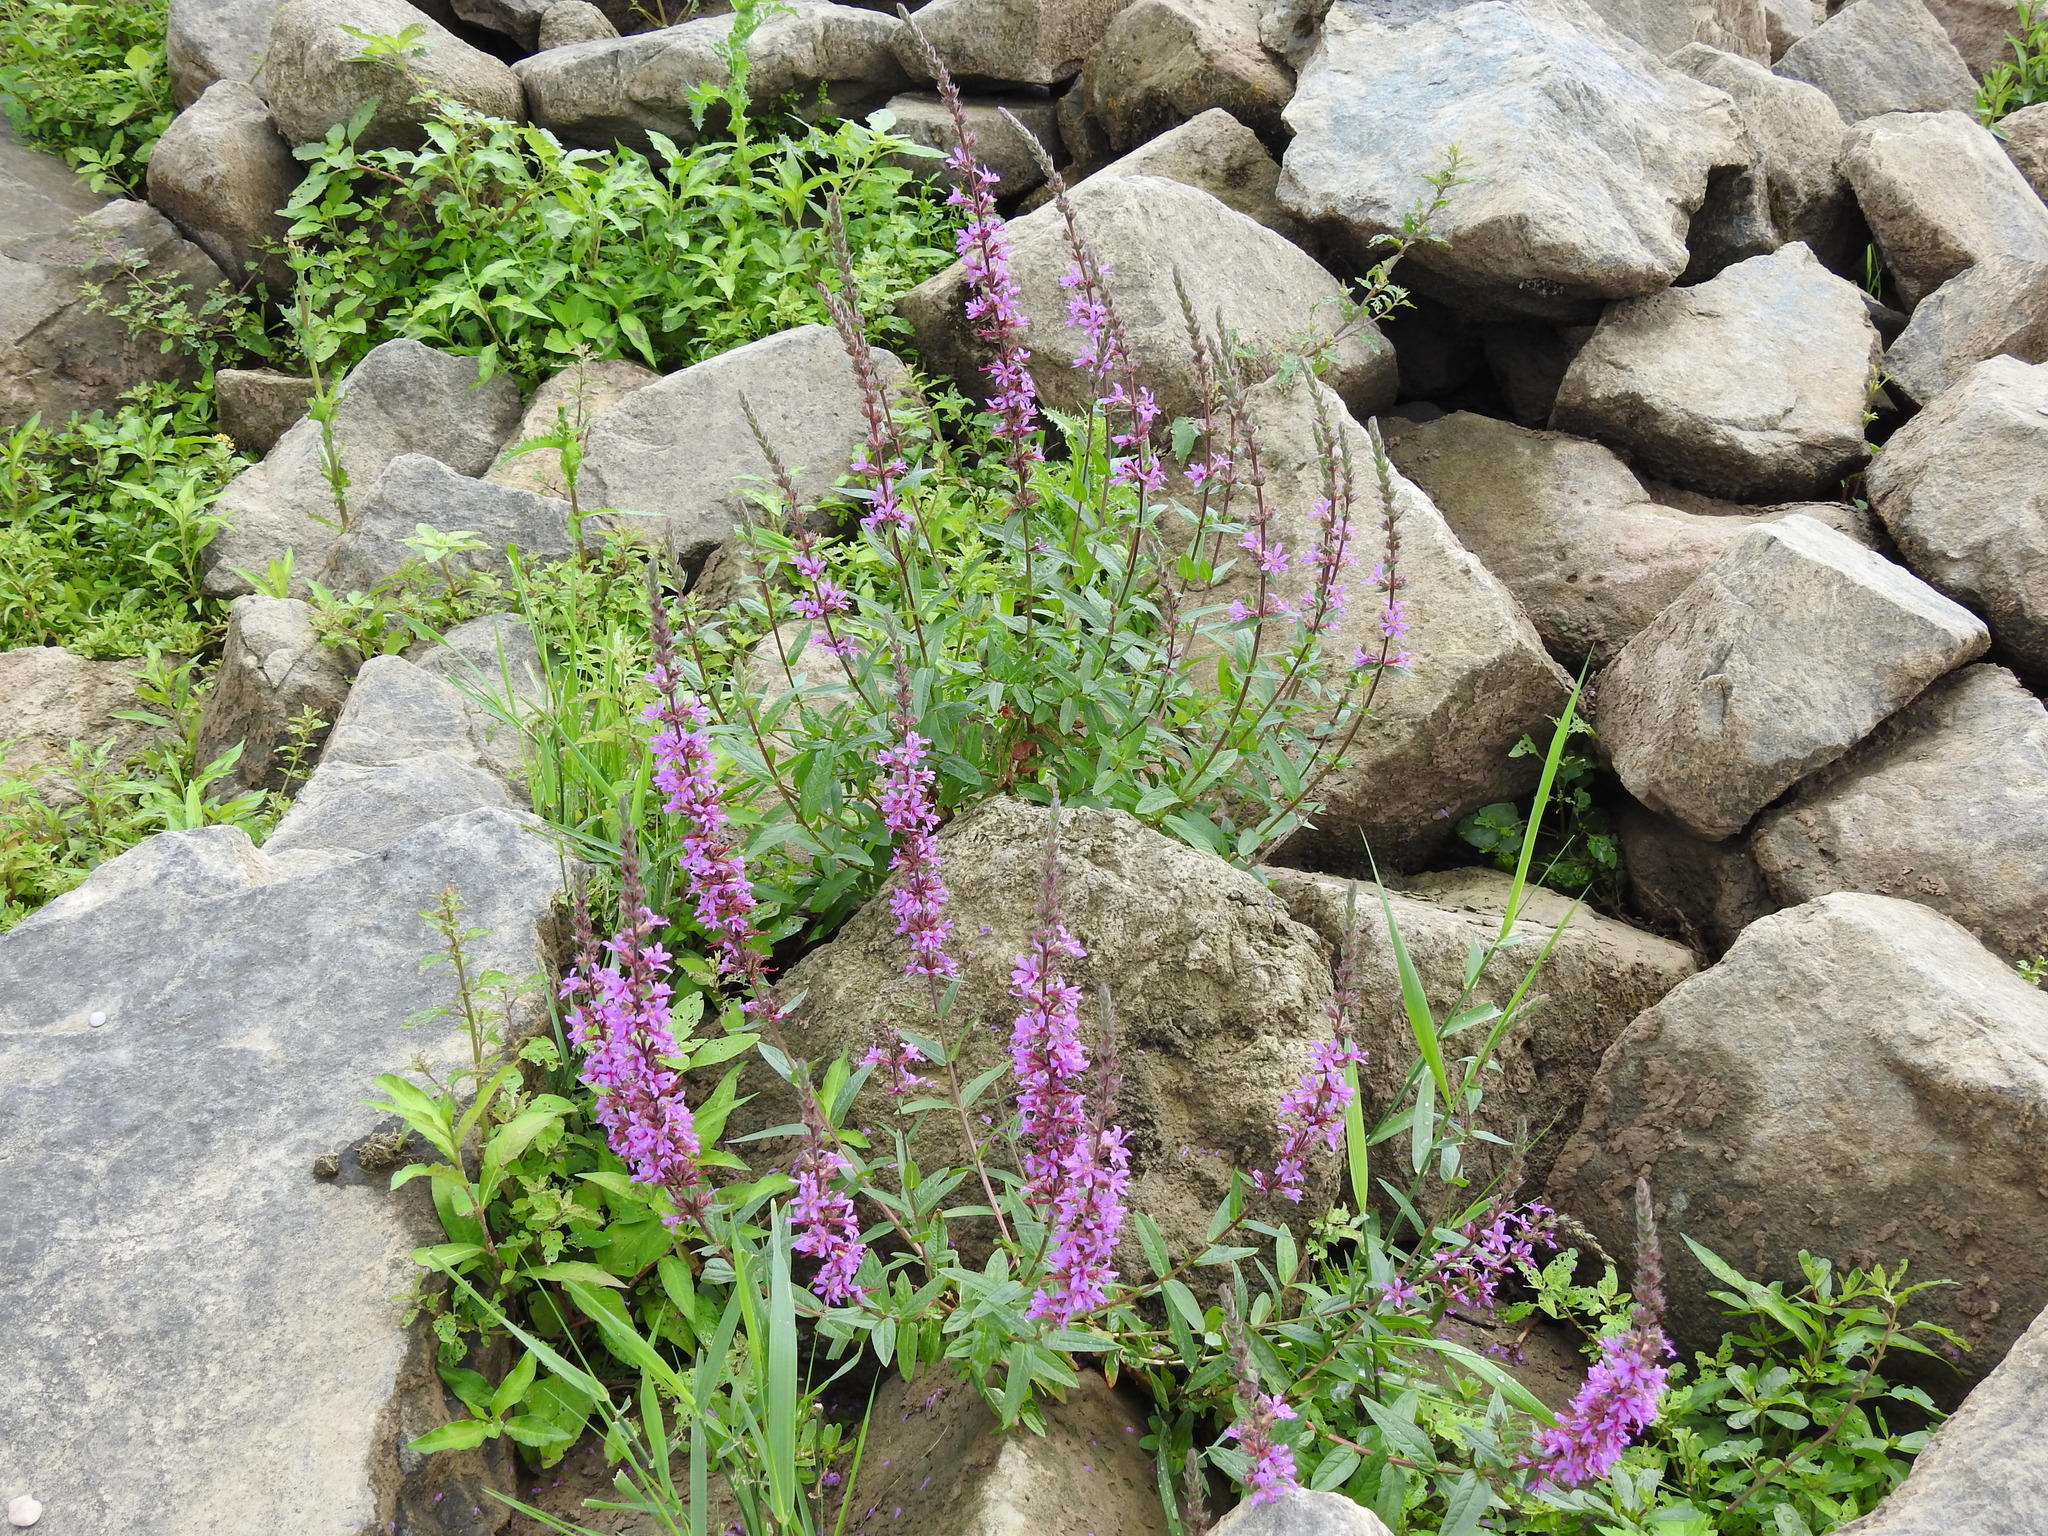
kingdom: Plantae
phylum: Tracheophyta
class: Magnoliopsida
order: Myrtales
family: Lythraceae
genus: Lythrum
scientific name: Lythrum salicaria
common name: Purple loosestrife
